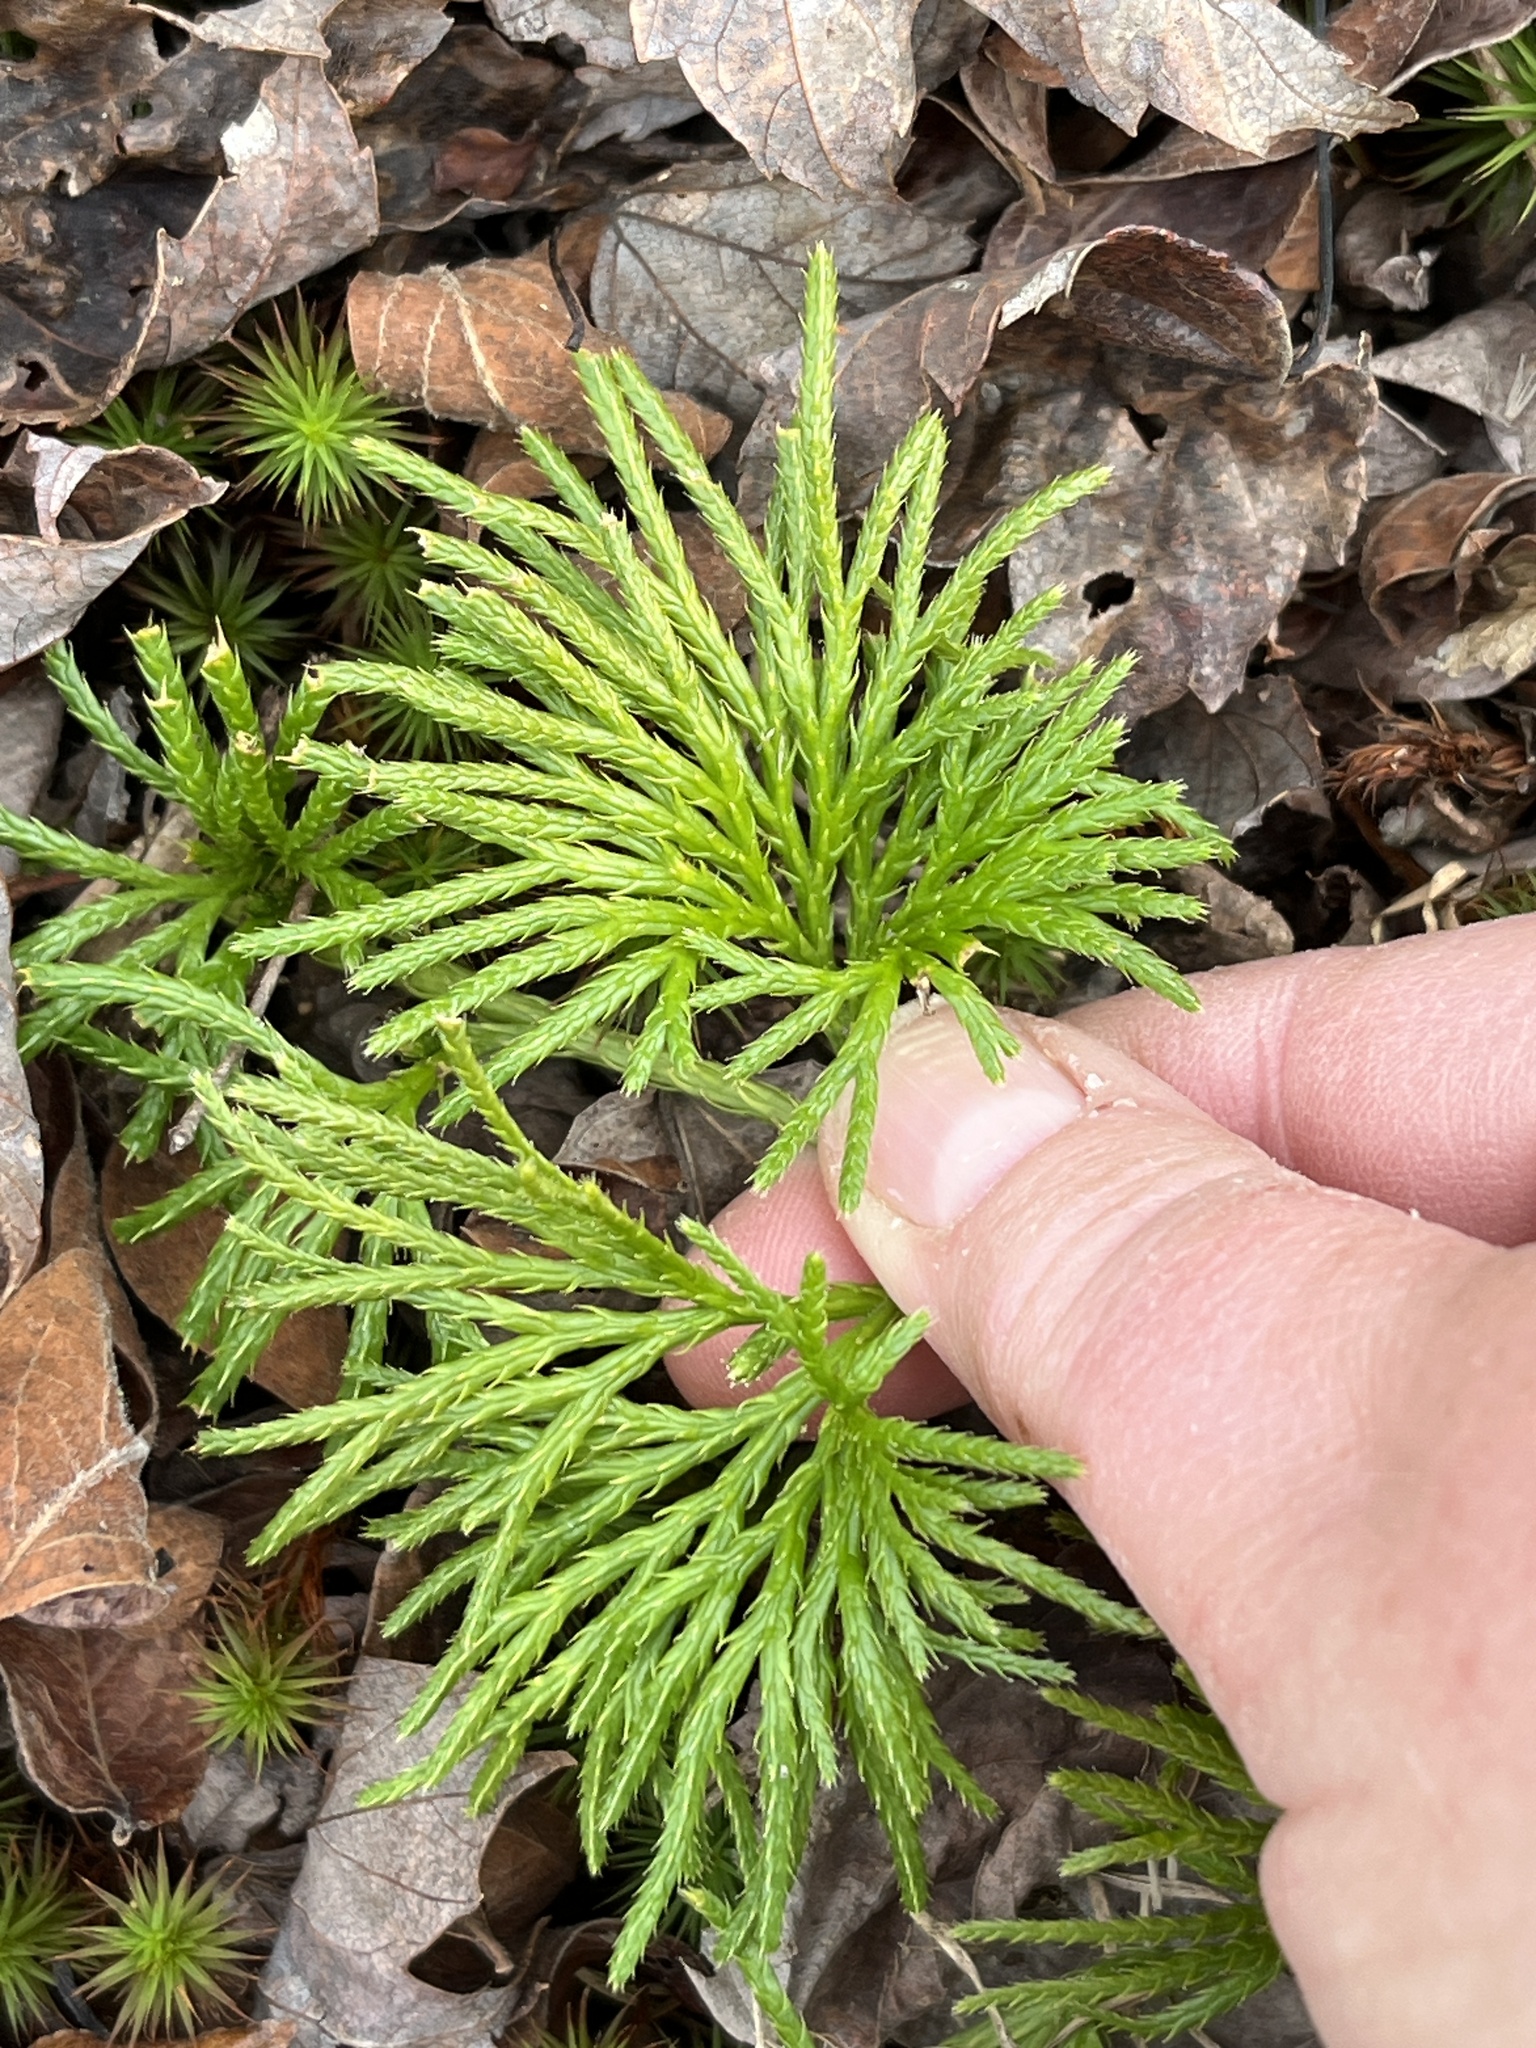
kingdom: Plantae
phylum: Tracheophyta
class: Lycopodiopsida
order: Lycopodiales
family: Lycopodiaceae
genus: Diphasiastrum
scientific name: Diphasiastrum digitatum
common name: Southern running-pine
